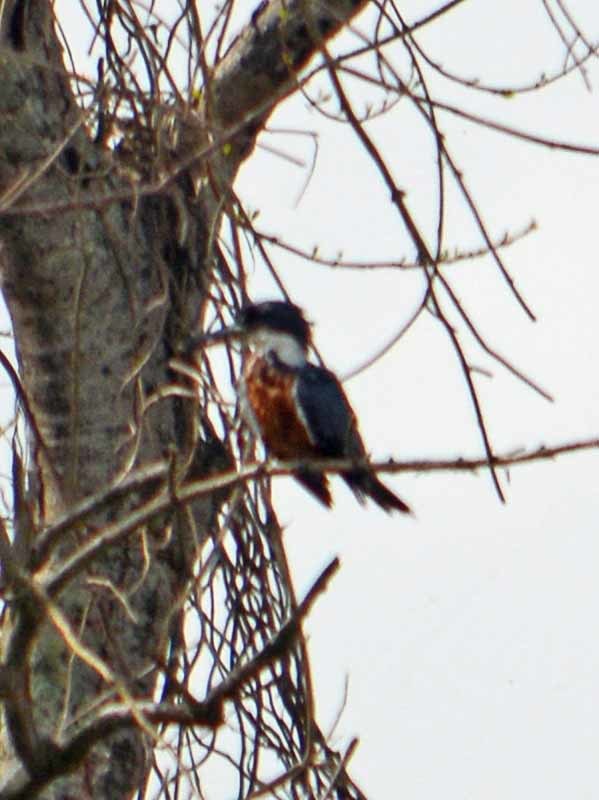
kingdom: Animalia
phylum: Chordata
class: Aves
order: Coraciiformes
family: Alcedinidae
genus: Megaceryle
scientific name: Megaceryle torquata
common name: Ringed kingfisher
